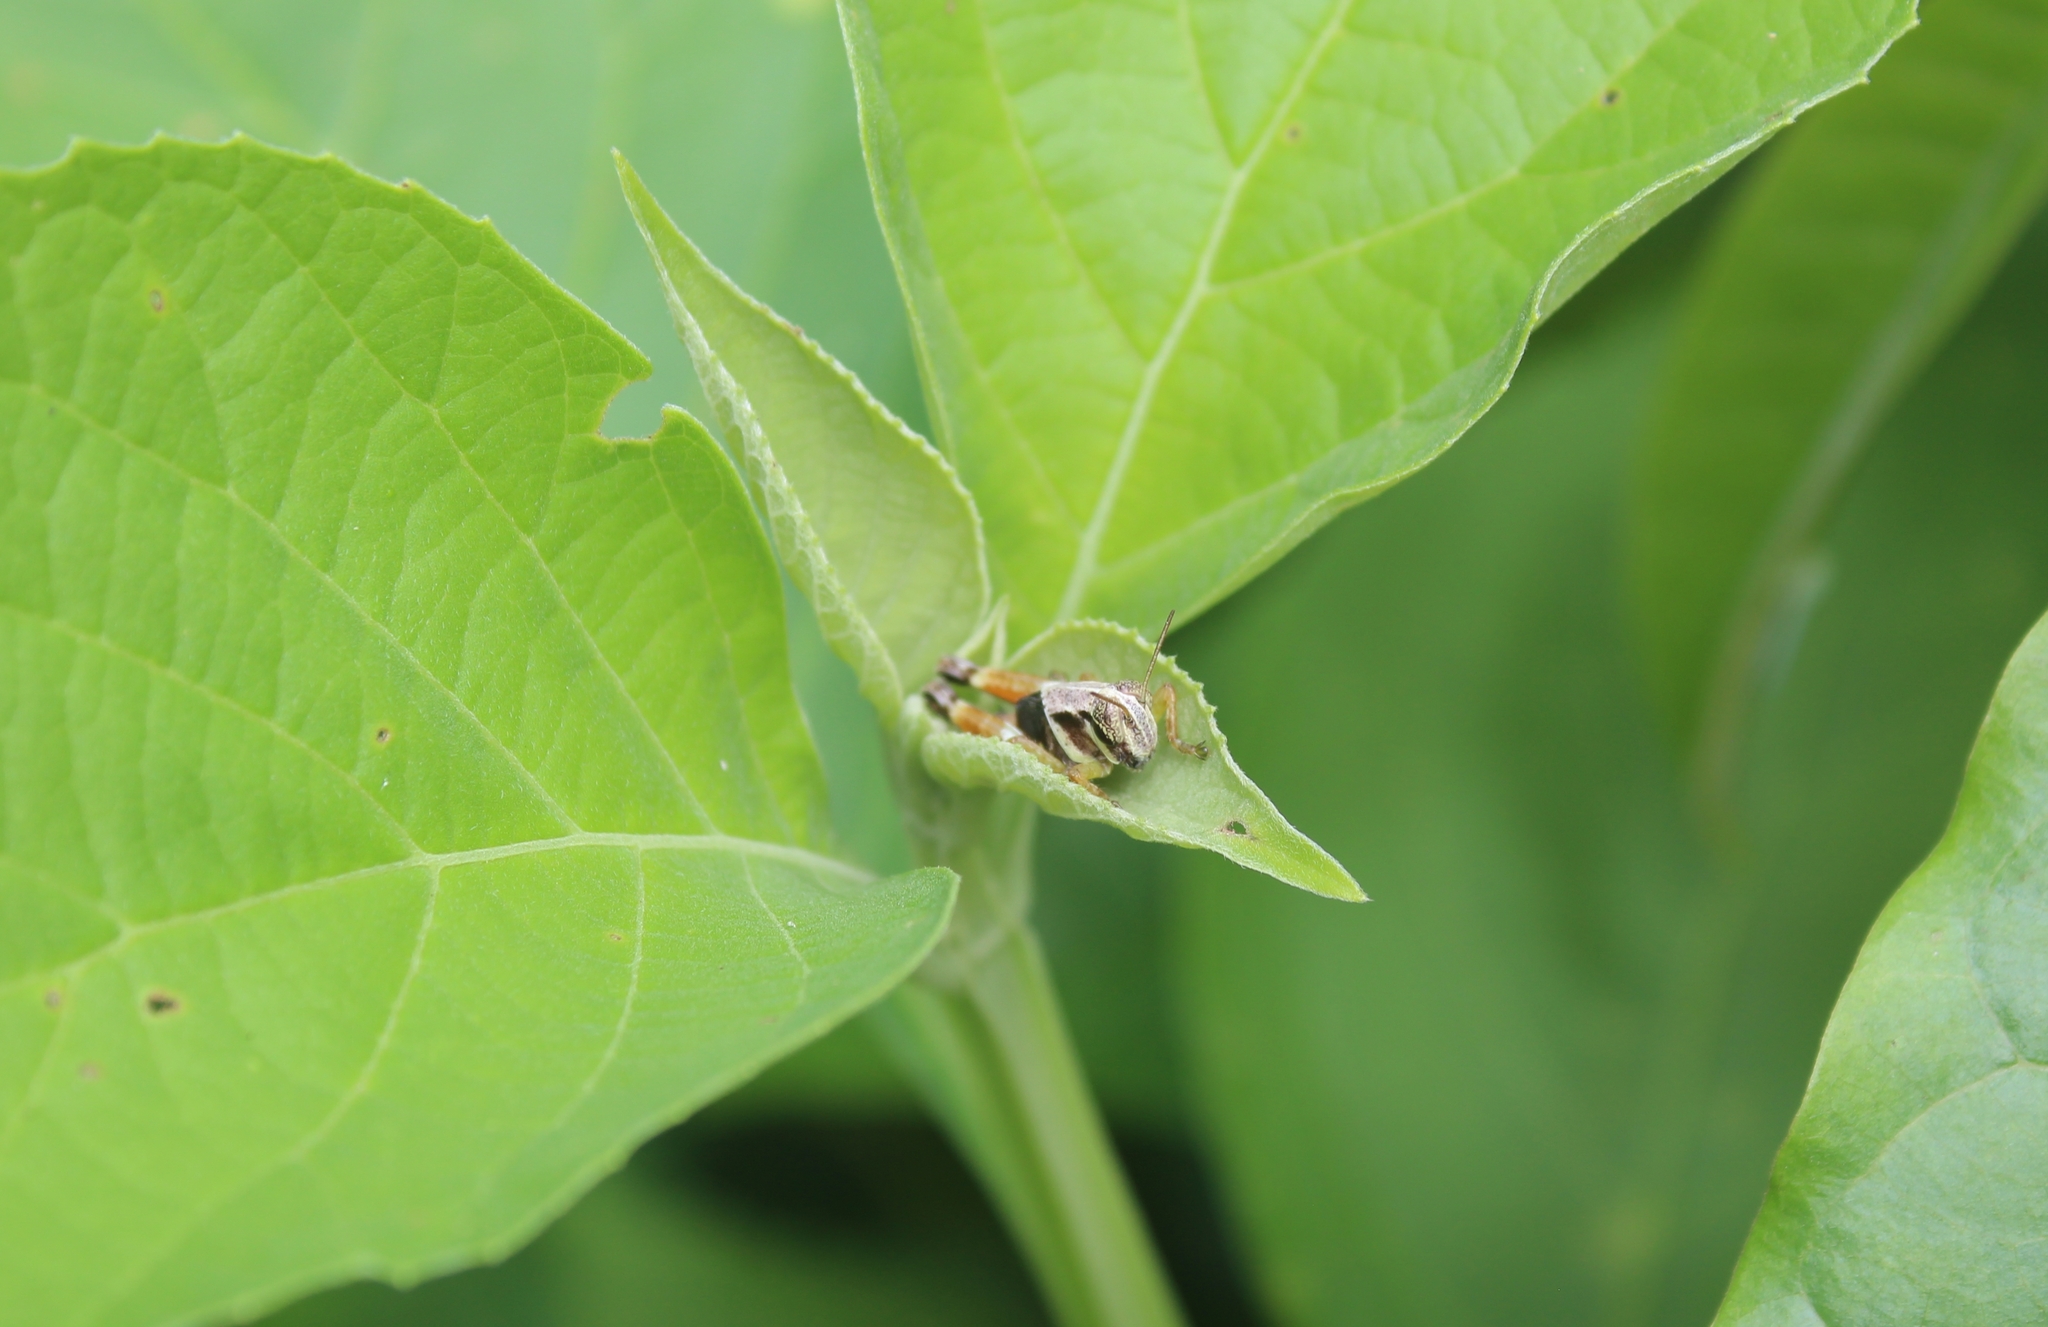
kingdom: Animalia
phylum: Arthropoda
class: Insecta
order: Orthoptera
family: Acrididae
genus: Aidemona
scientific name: Aidemona azteca
